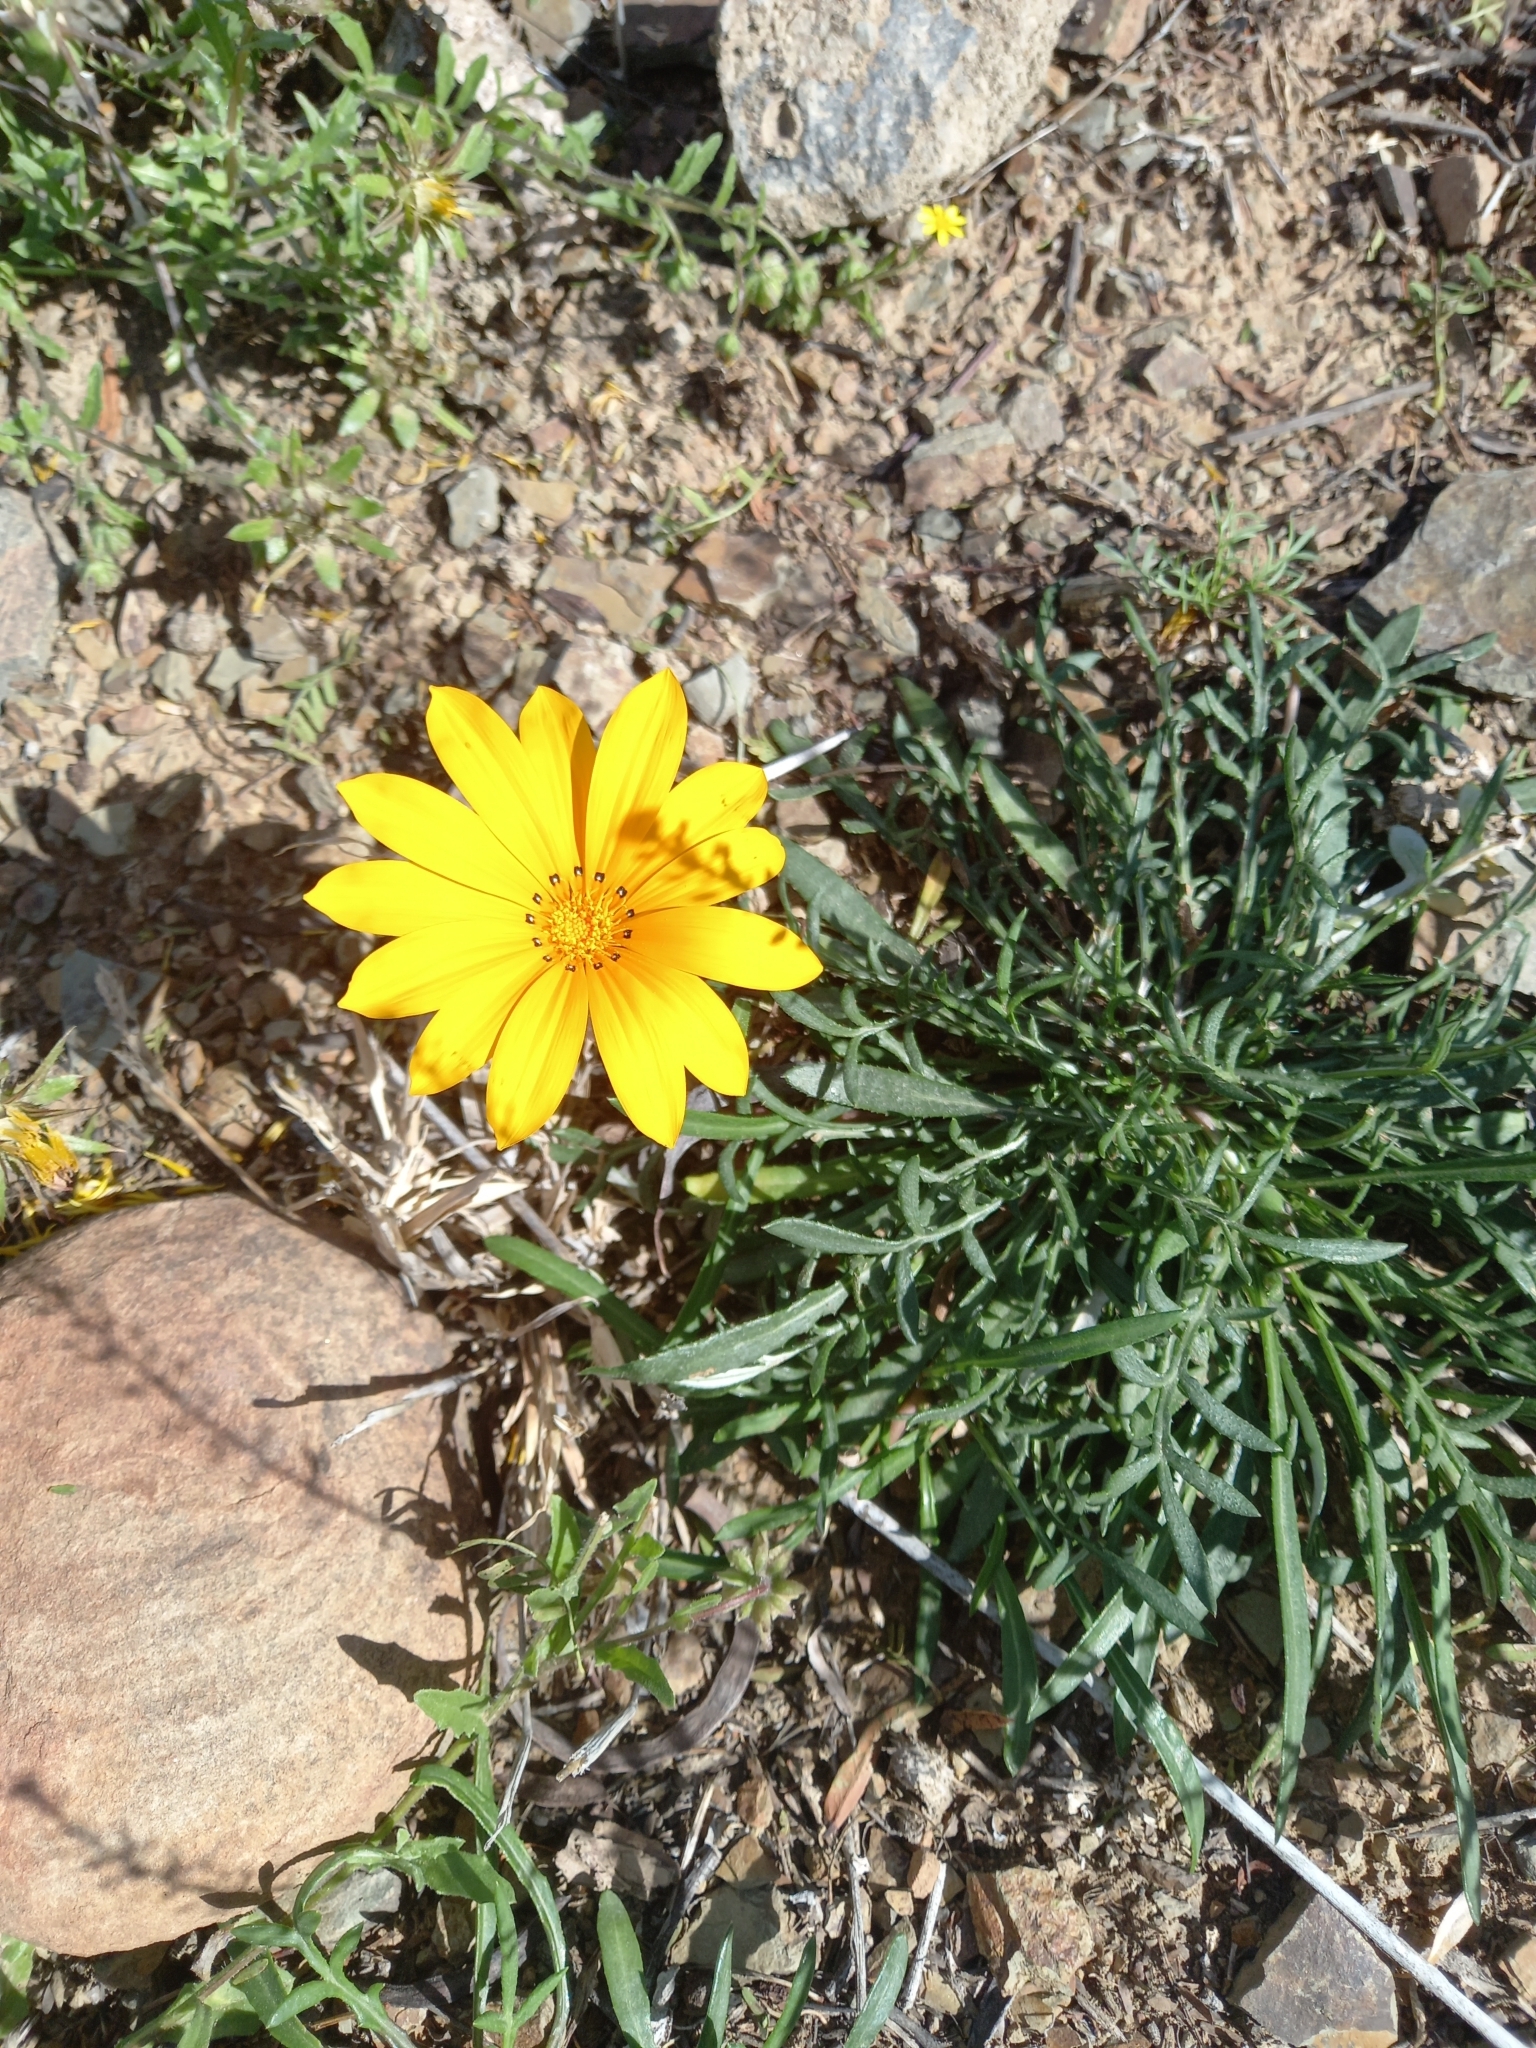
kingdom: Plantae
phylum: Tracheophyta
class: Magnoliopsida
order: Asterales
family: Asteraceae
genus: Gazania
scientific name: Gazania krebsiana
